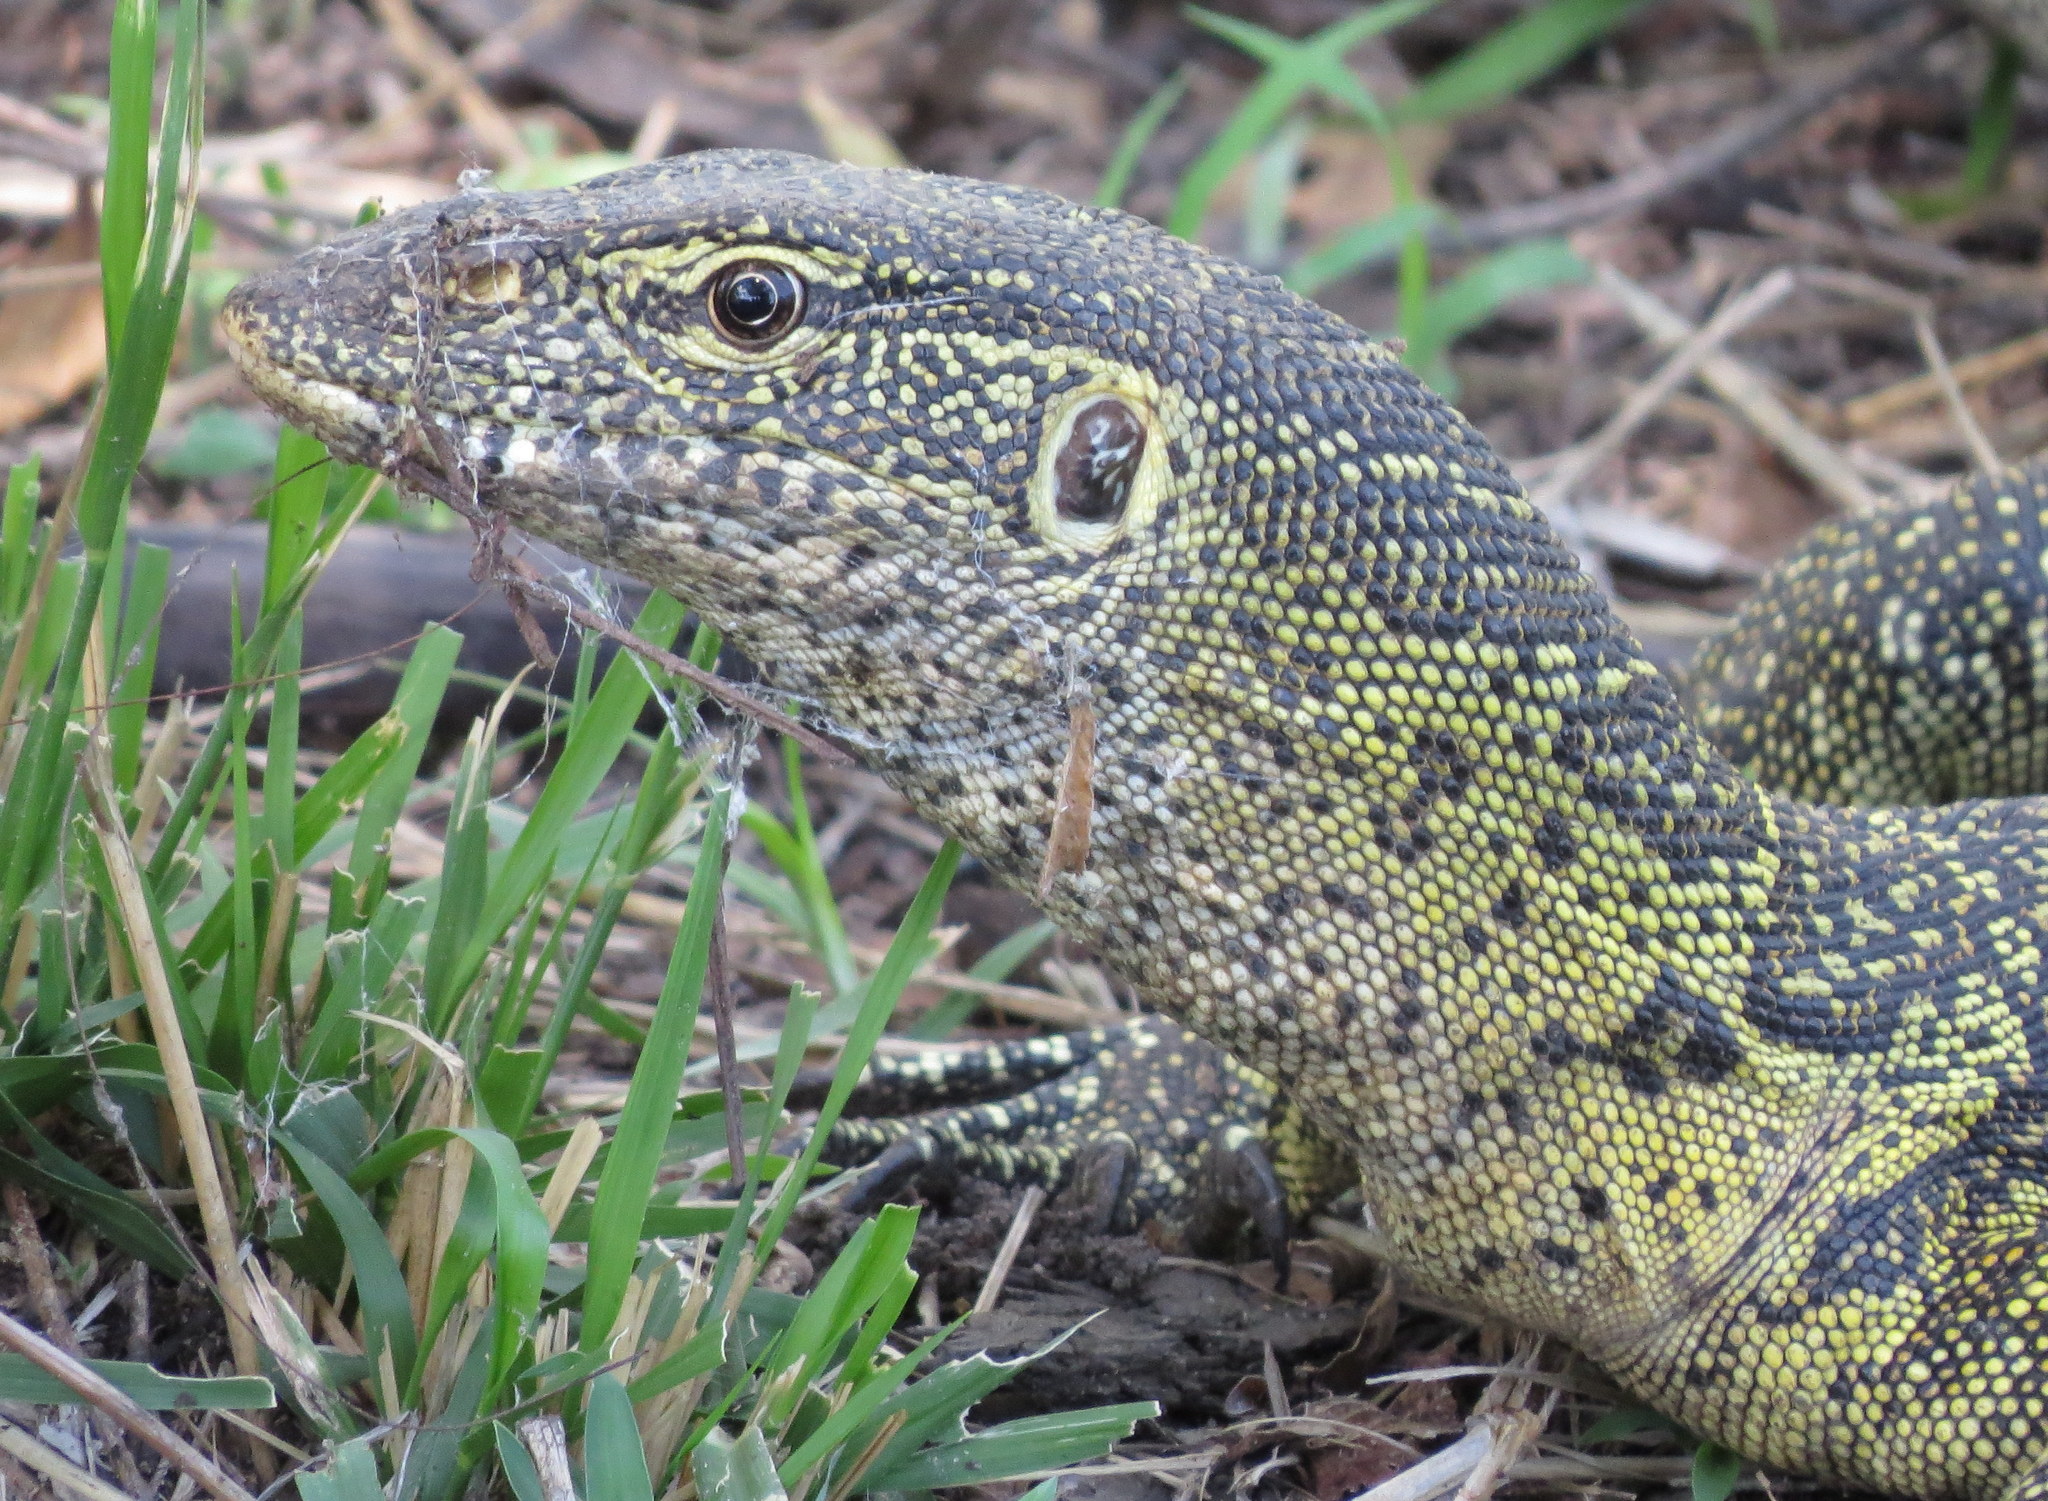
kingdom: Animalia
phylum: Chordata
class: Squamata
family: Varanidae
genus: Varanus
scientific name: Varanus niloticus
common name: Nile monitor
